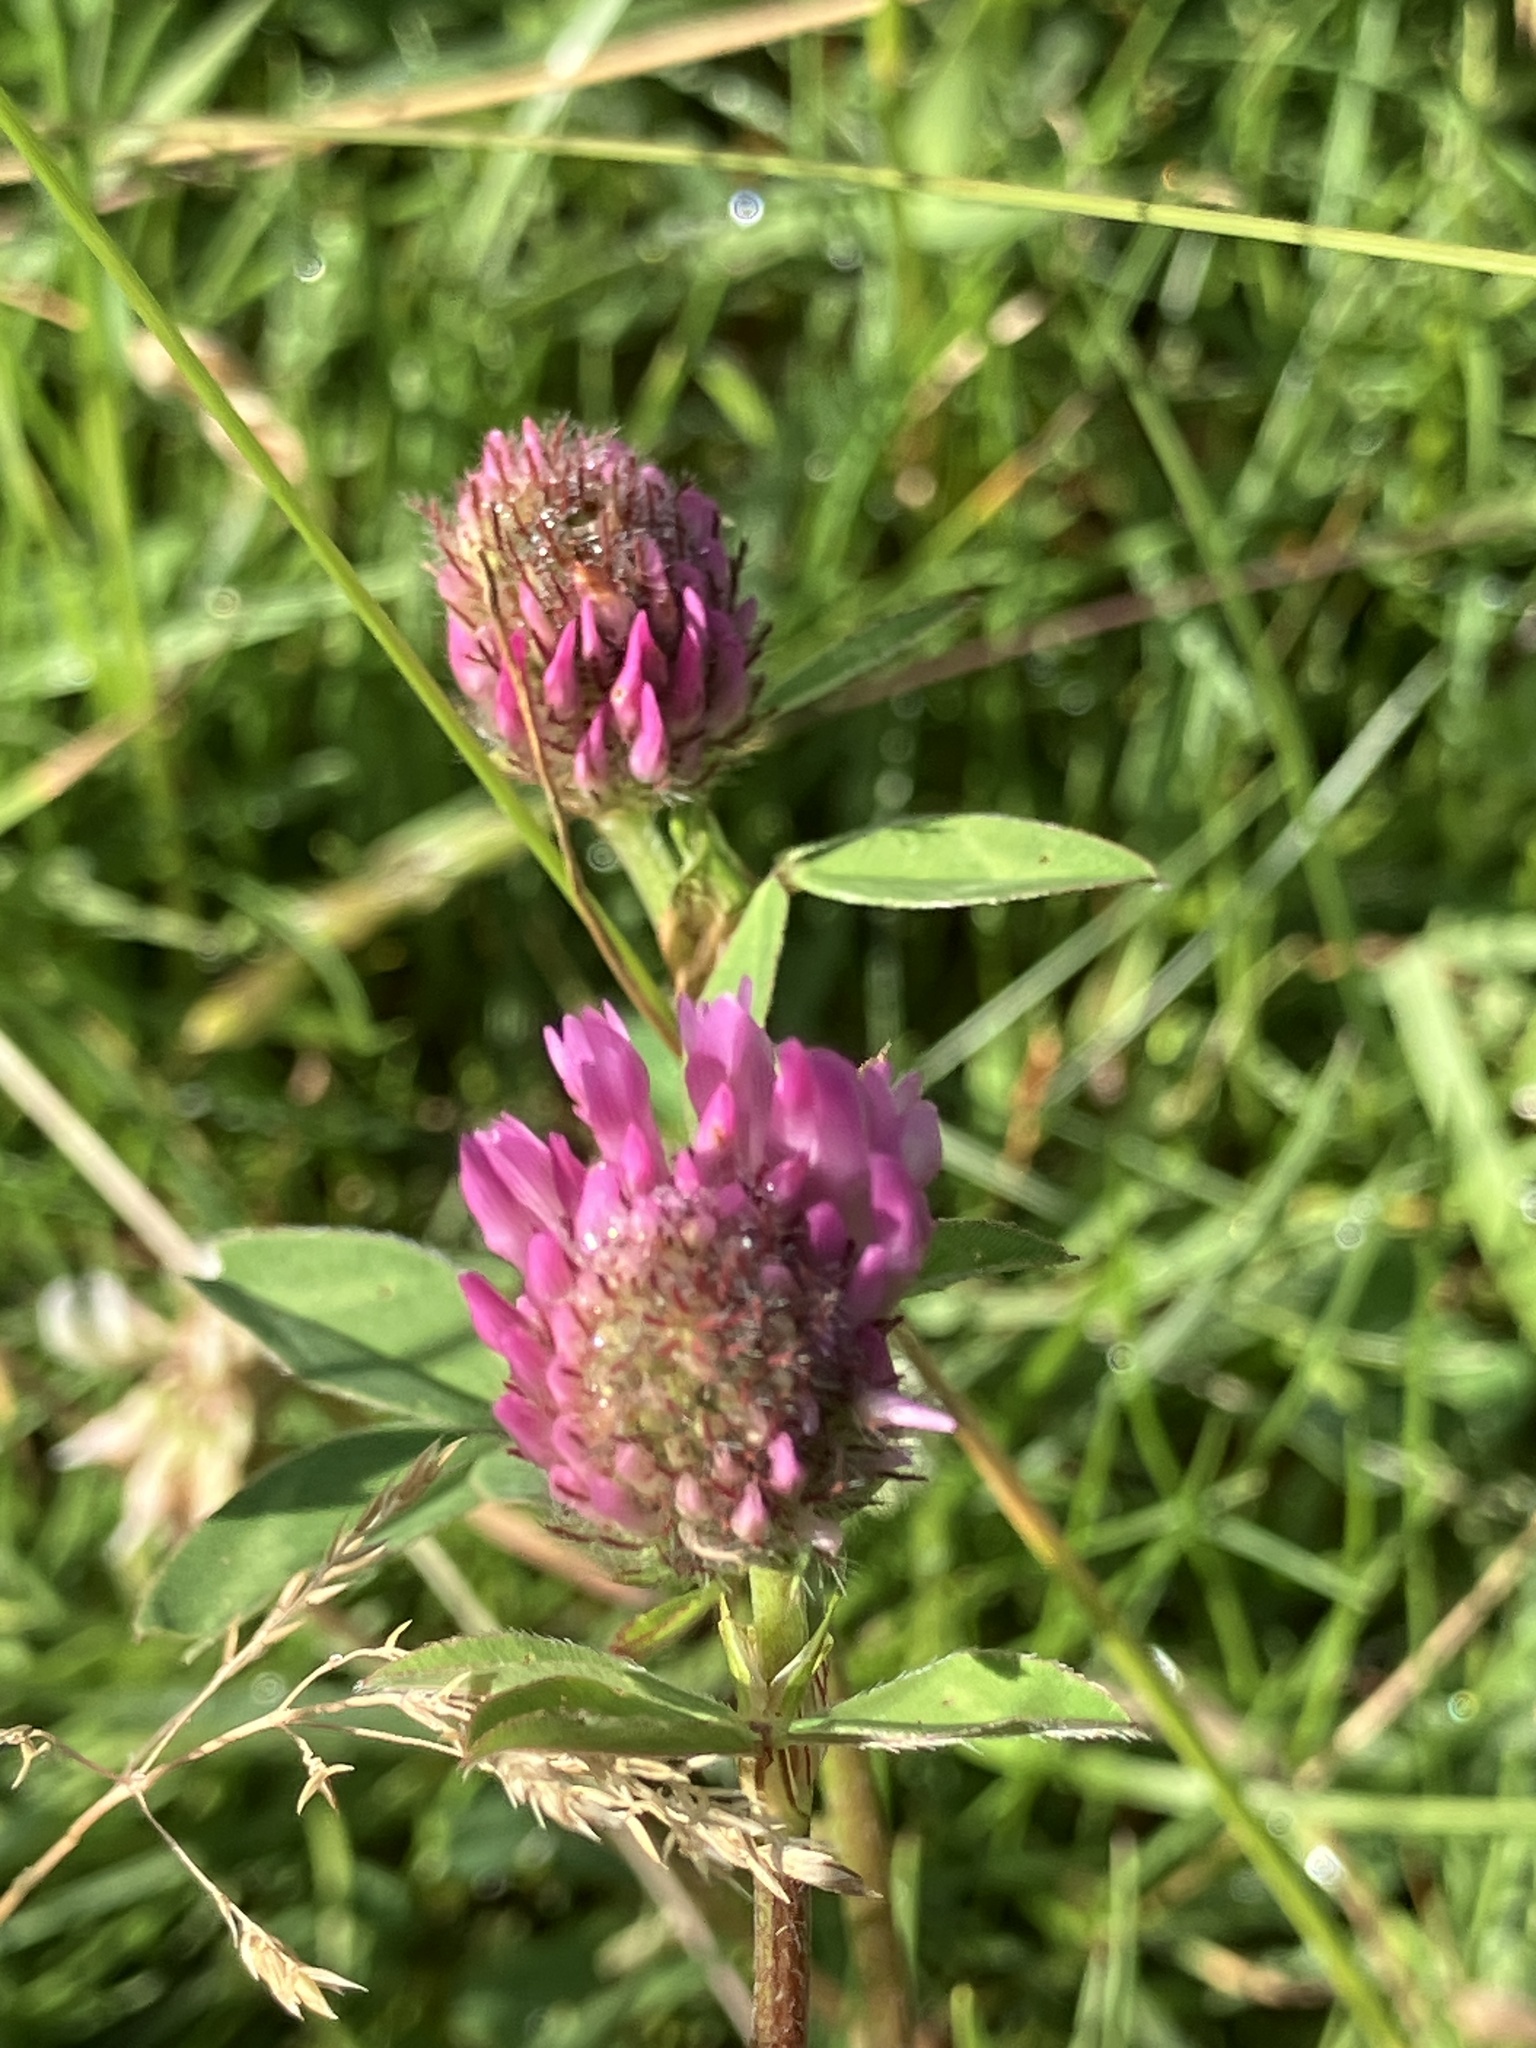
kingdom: Plantae
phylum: Tracheophyta
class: Magnoliopsida
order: Fabales
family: Fabaceae
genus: Trifolium
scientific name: Trifolium pratense
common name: Red clover
